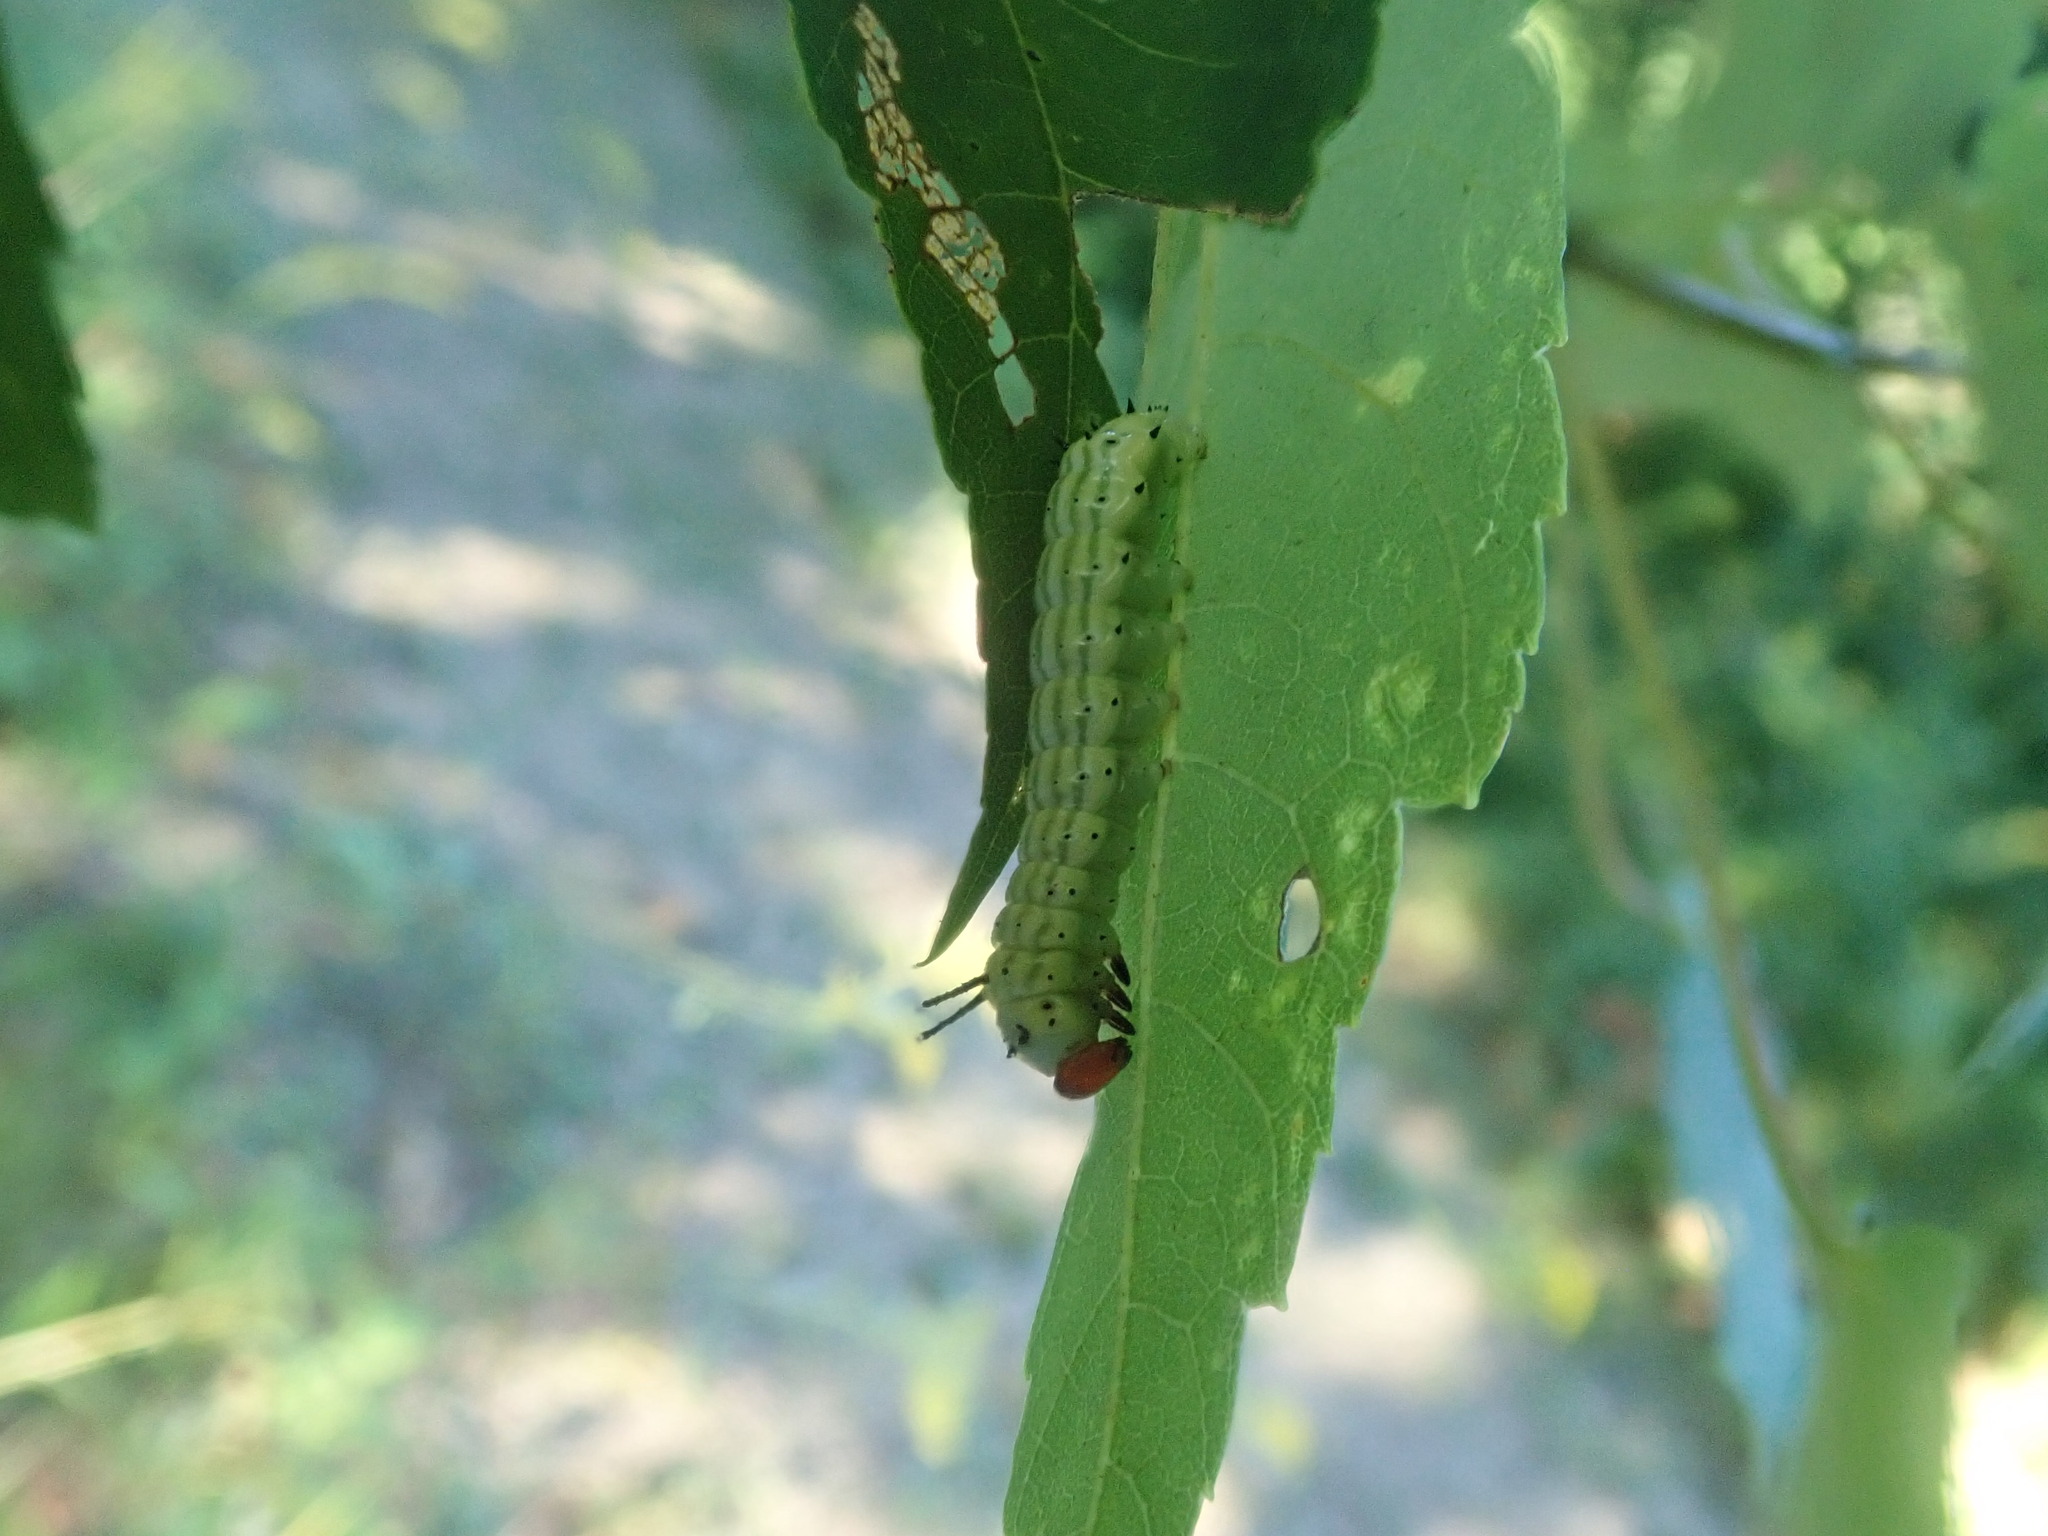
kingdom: Animalia
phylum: Arthropoda
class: Insecta
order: Lepidoptera
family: Saturniidae
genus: Dryocampa
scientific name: Dryocampa rubicunda
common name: Rosy maple moth
